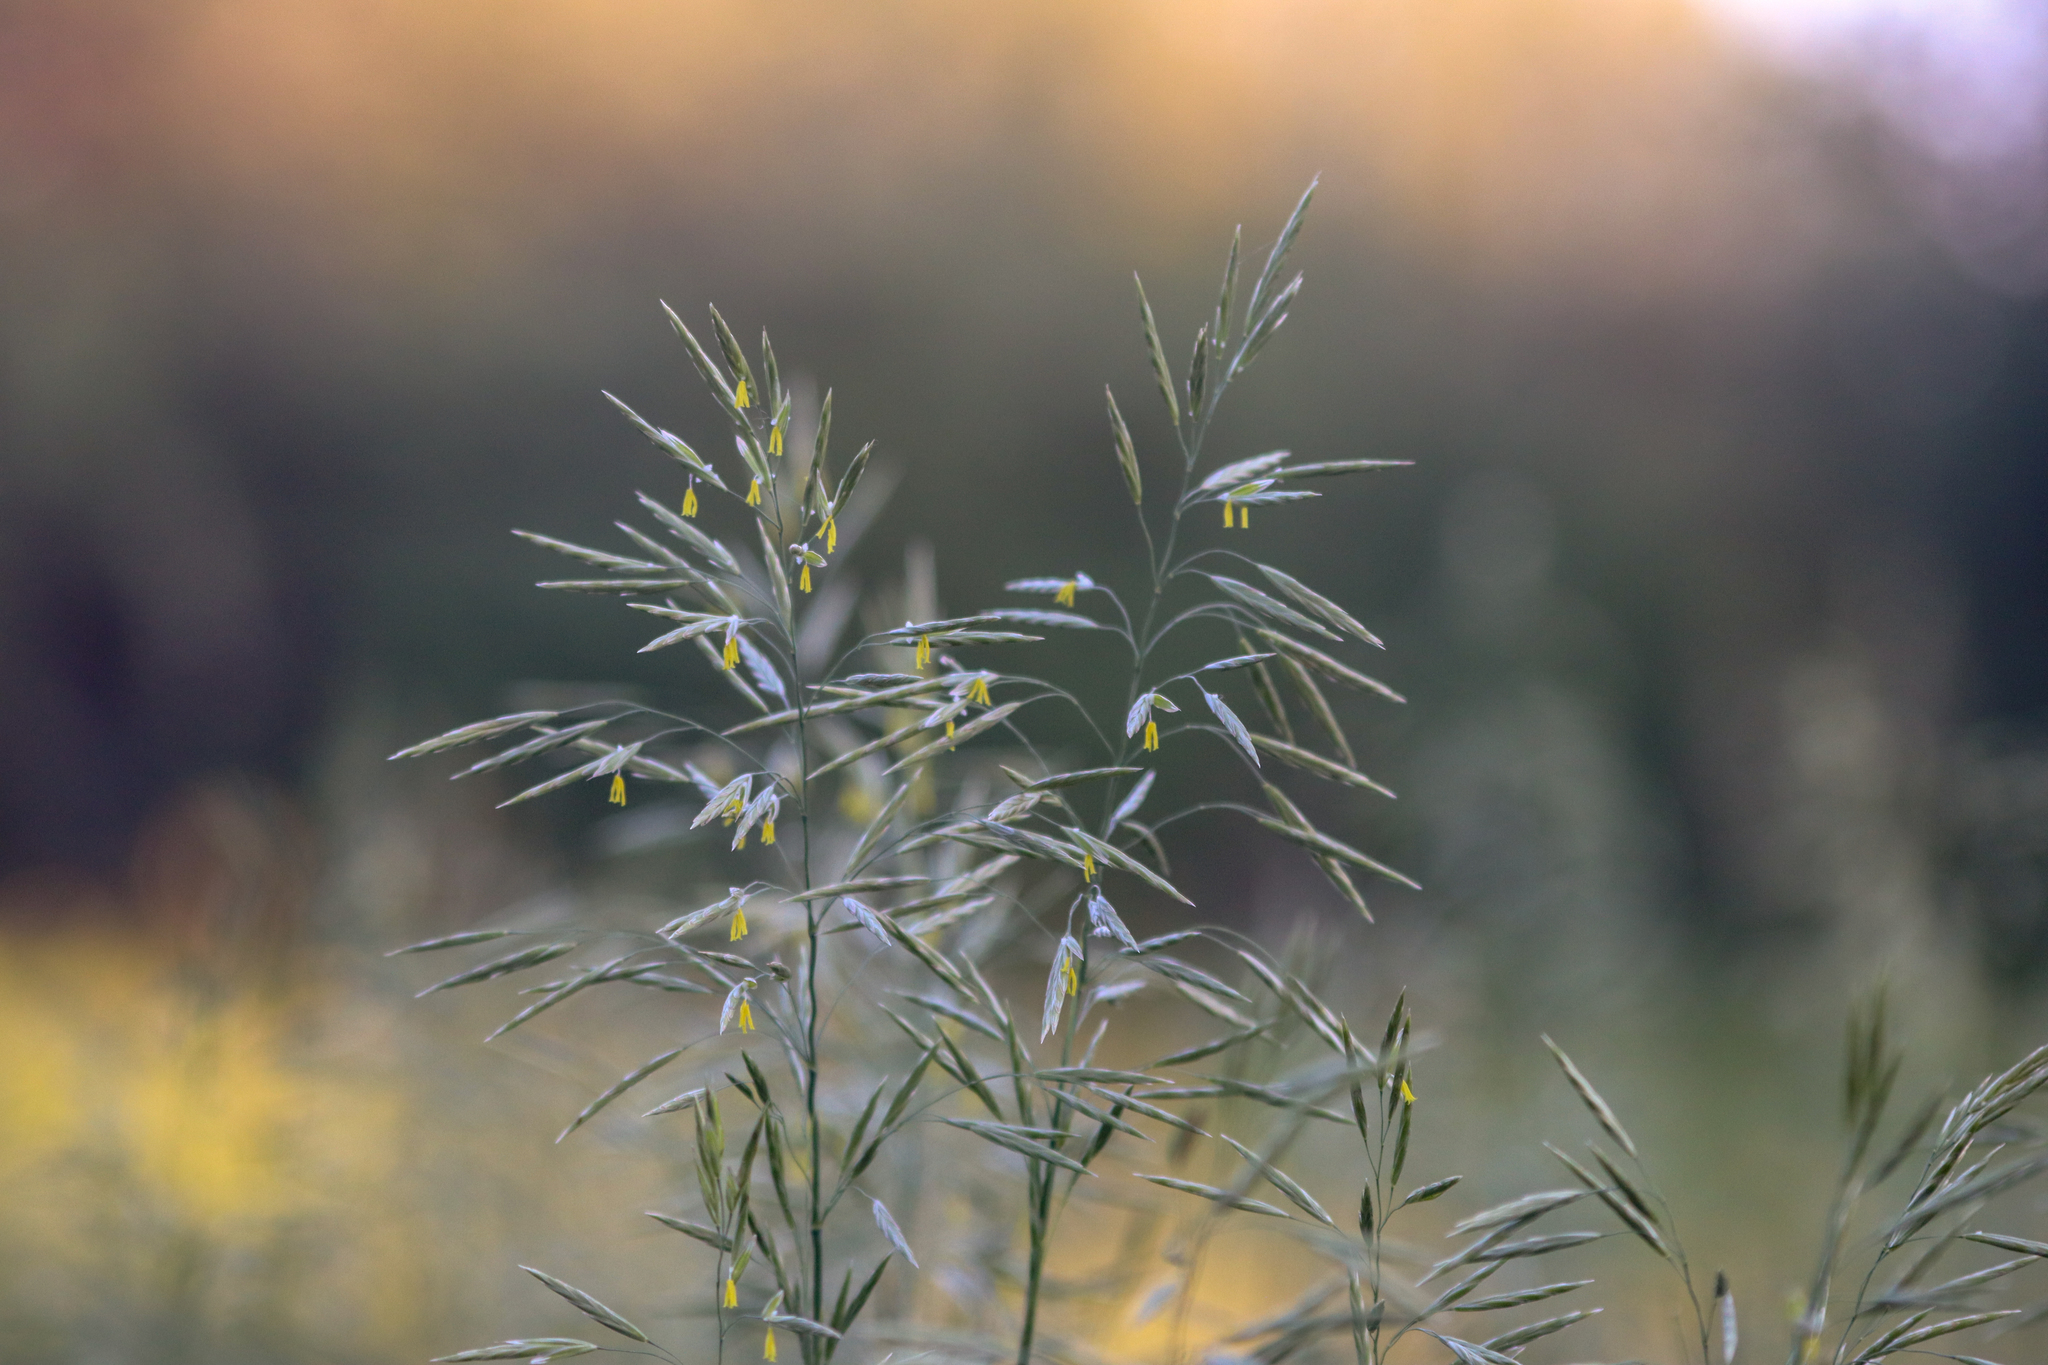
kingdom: Plantae
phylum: Tracheophyta
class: Liliopsida
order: Poales
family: Poaceae
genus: Bromus
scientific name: Bromus inermis
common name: Smooth brome
